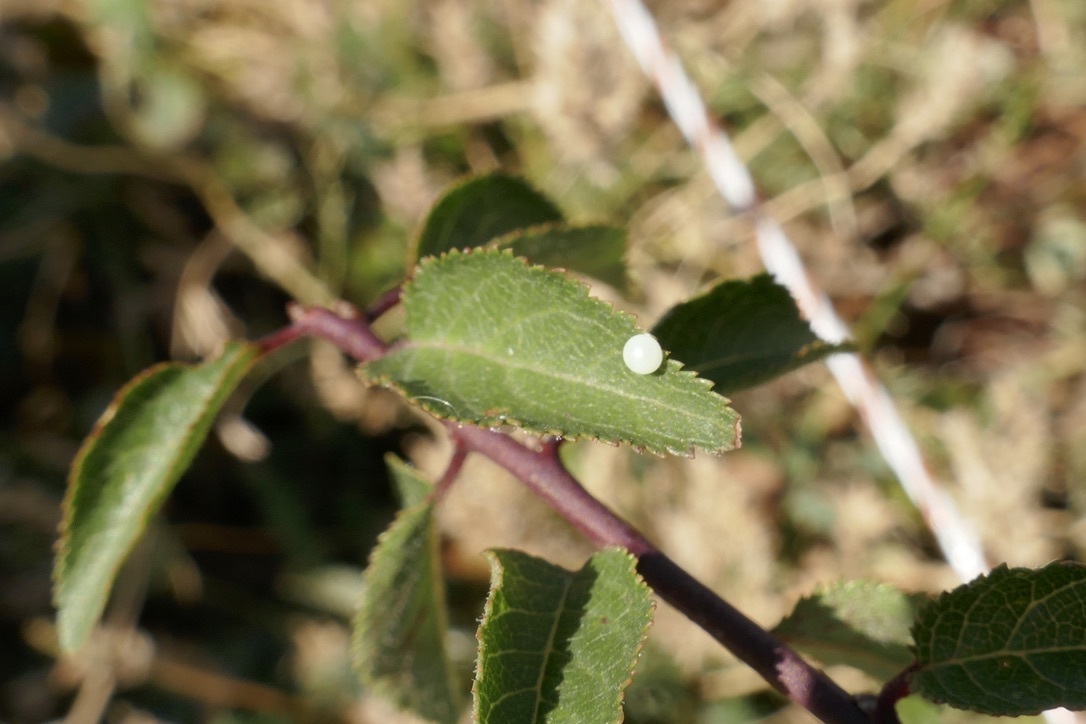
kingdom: Animalia
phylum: Arthropoda
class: Insecta
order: Lepidoptera
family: Papilionidae
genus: Iphiclides
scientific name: Iphiclides podalirius
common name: Scarce swallowtail
